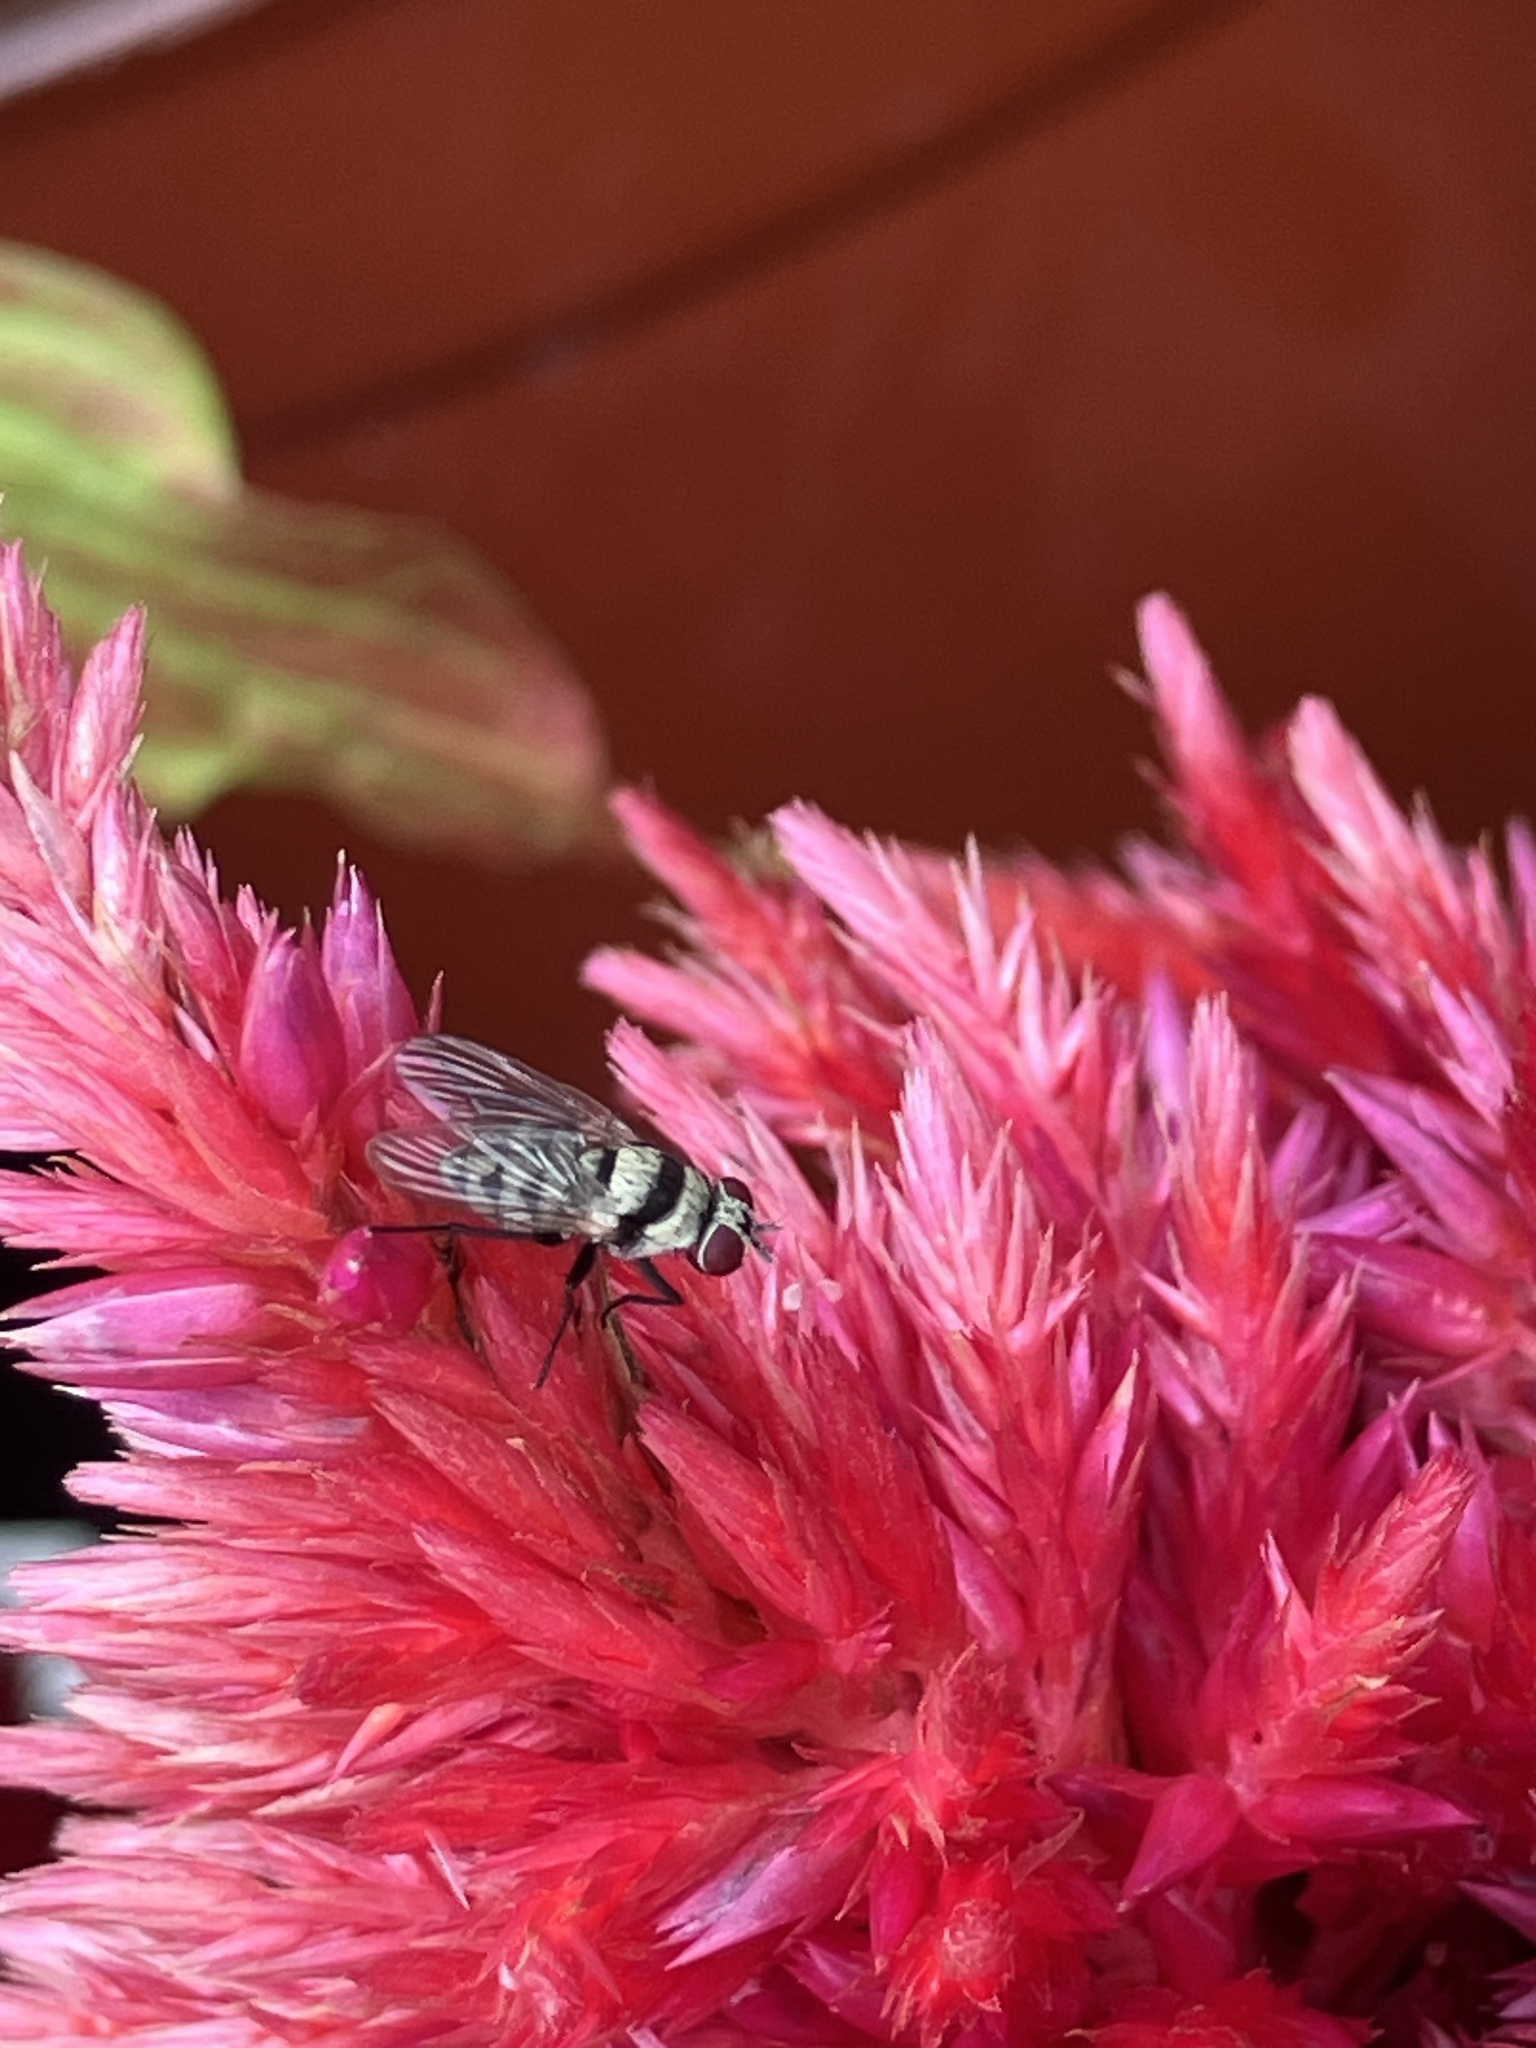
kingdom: Animalia
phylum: Arthropoda
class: Insecta
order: Diptera
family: Anthomyiidae
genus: Anthomyia
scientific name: Anthomyia illocata
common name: Fly
